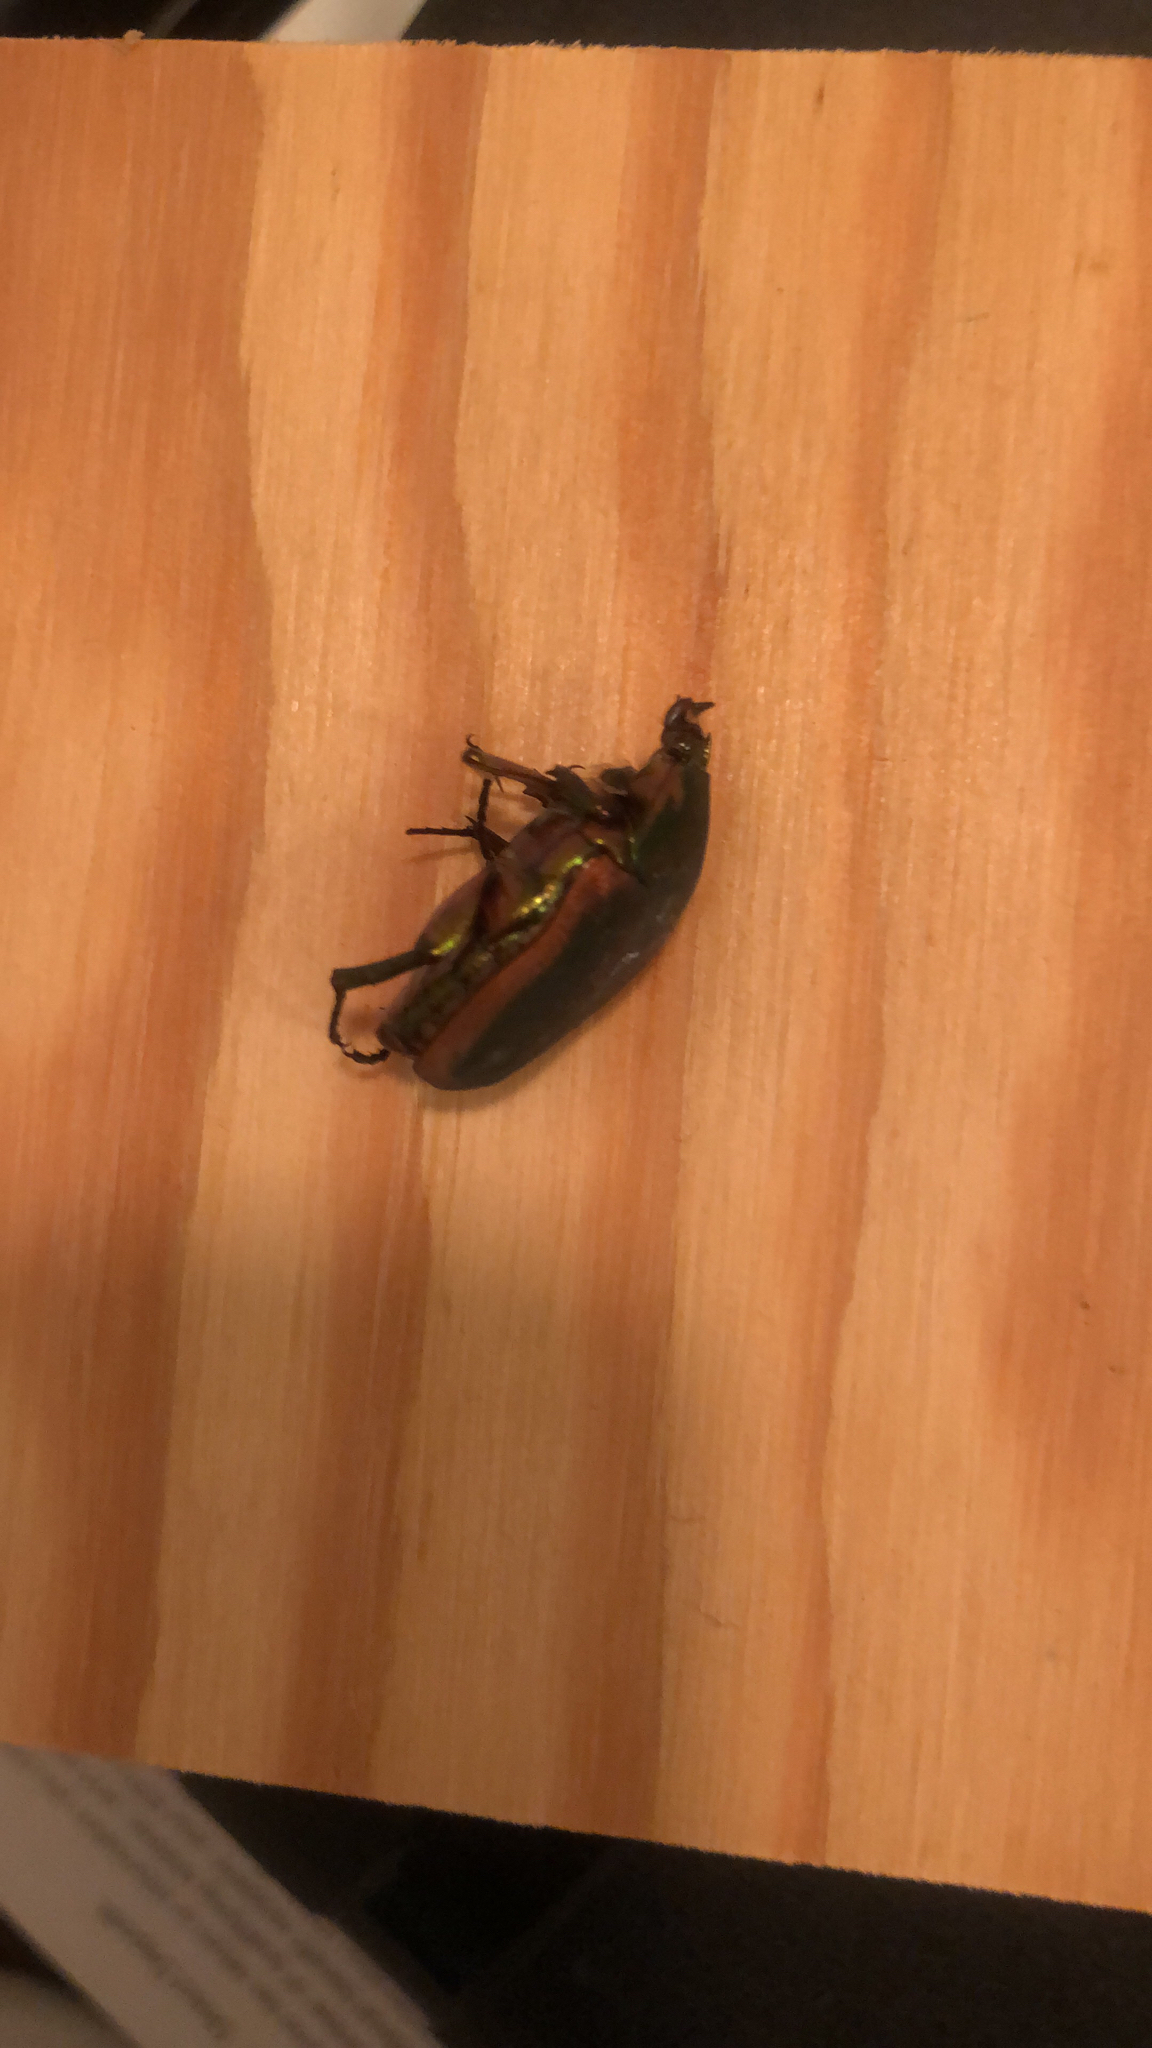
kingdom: Animalia
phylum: Arthropoda
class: Insecta
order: Coleoptera
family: Scarabaeidae
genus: Cotinis
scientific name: Cotinis nitida
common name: Common green june beetle
